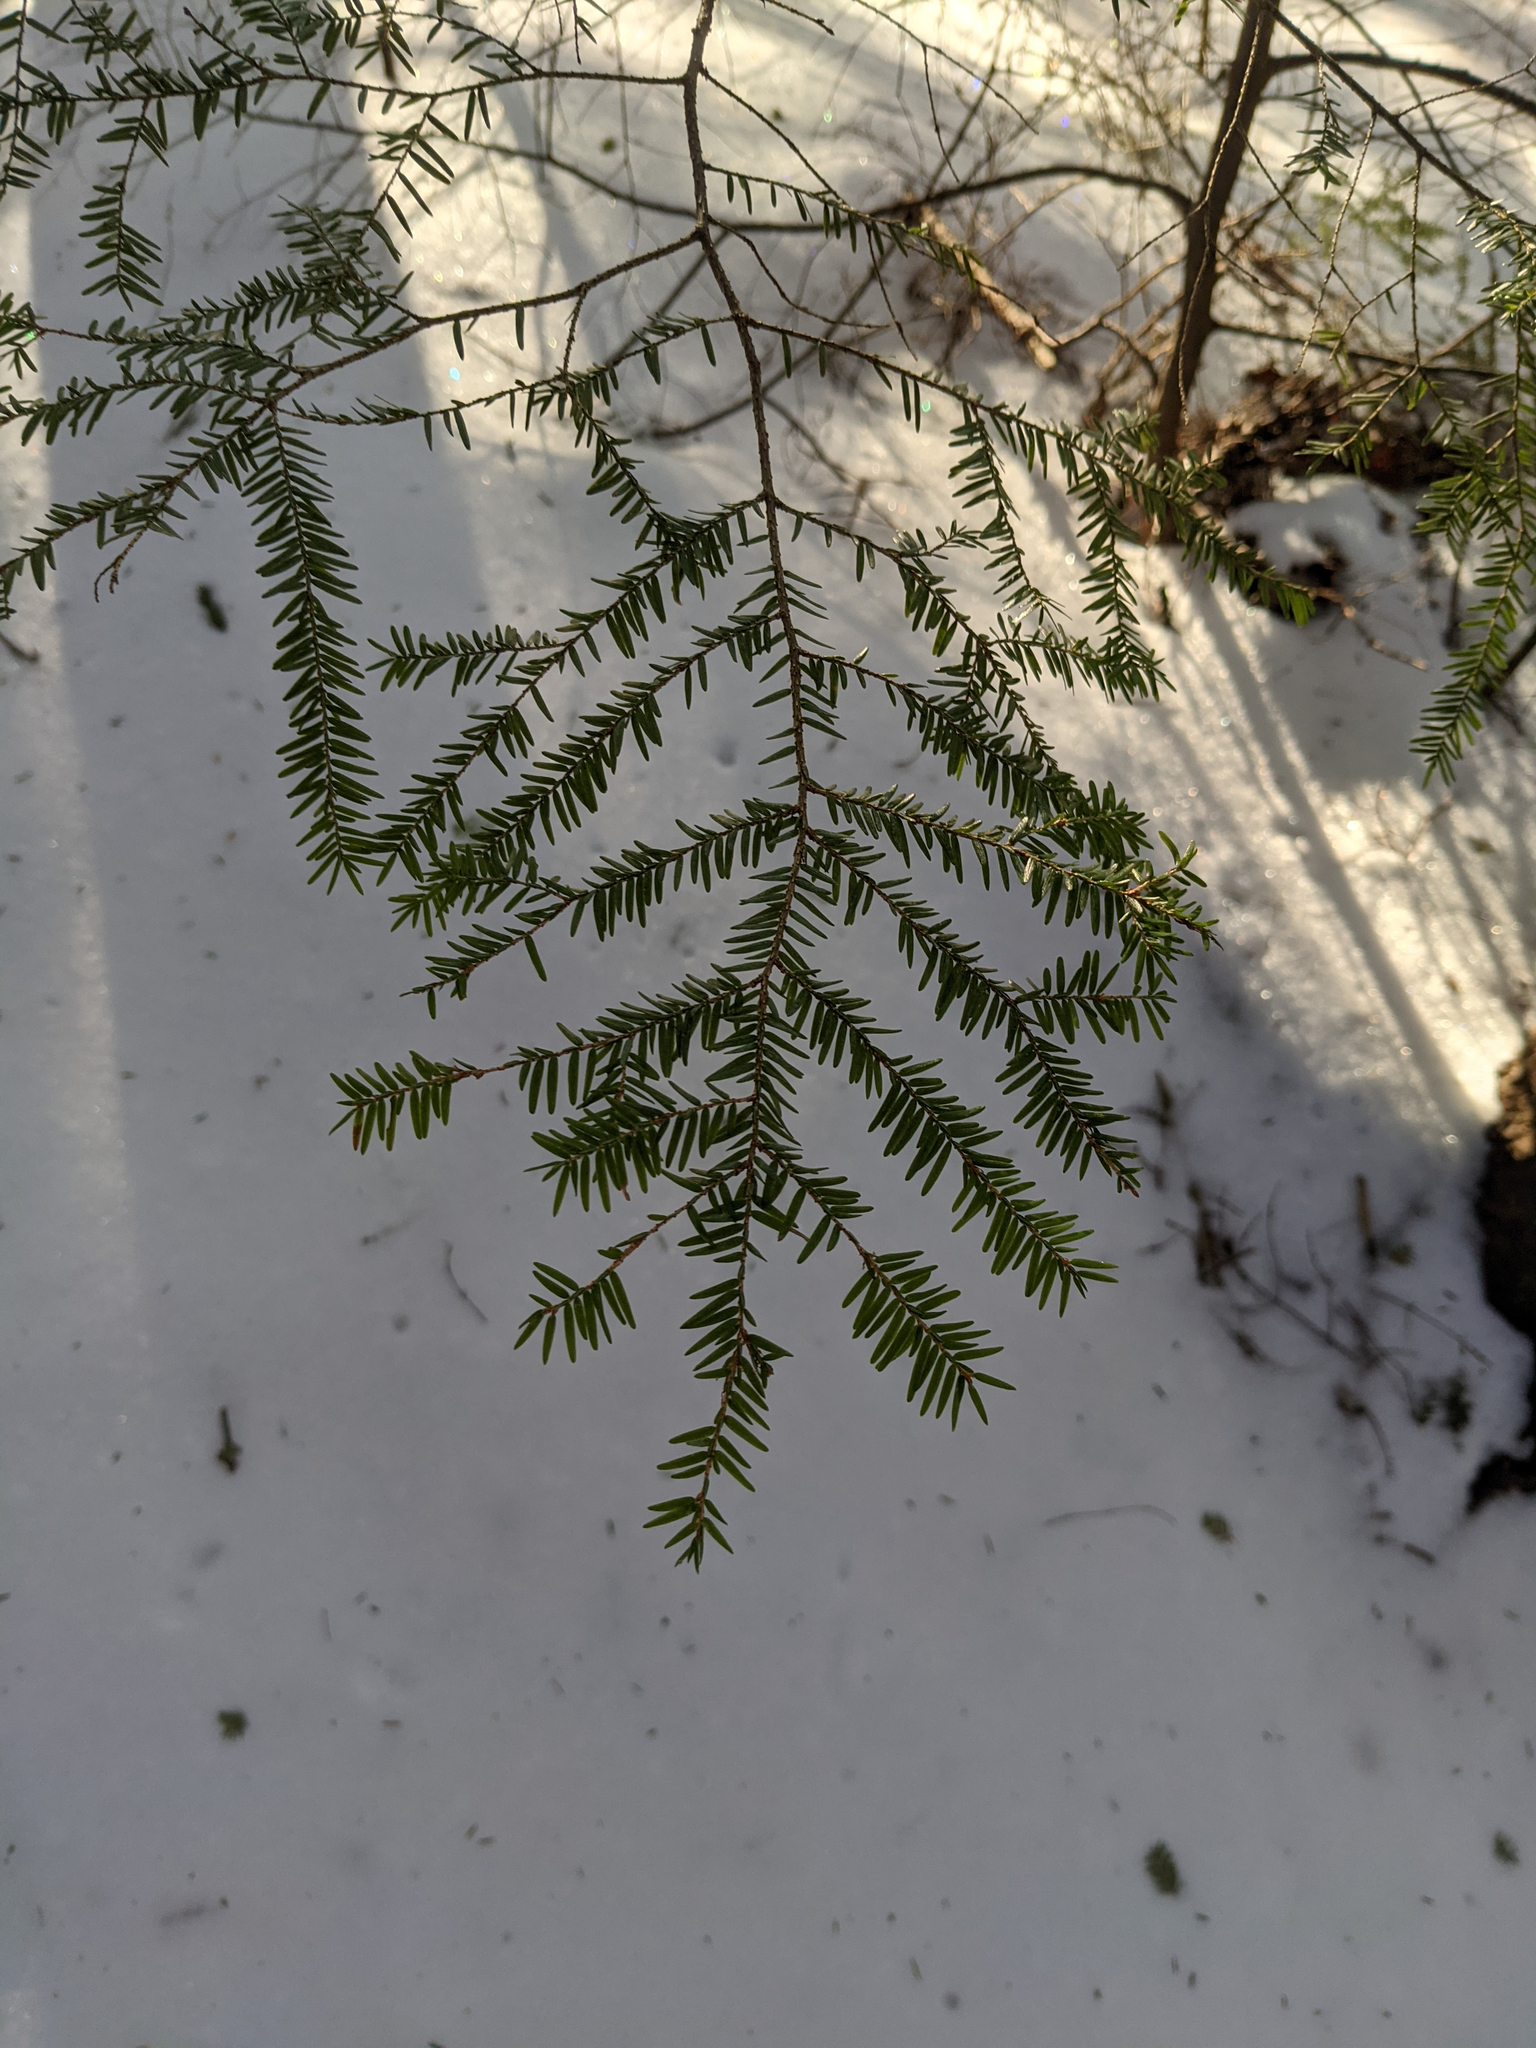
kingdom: Plantae
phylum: Tracheophyta
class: Pinopsida
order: Pinales
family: Pinaceae
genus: Tsuga
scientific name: Tsuga canadensis
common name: Eastern hemlock
